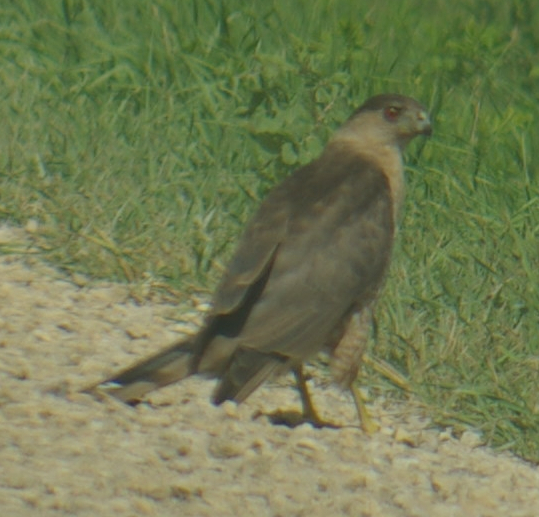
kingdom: Animalia
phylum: Chordata
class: Aves
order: Accipitriformes
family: Accipitridae
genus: Accipiter
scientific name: Accipiter cooperii
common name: Cooper's hawk
